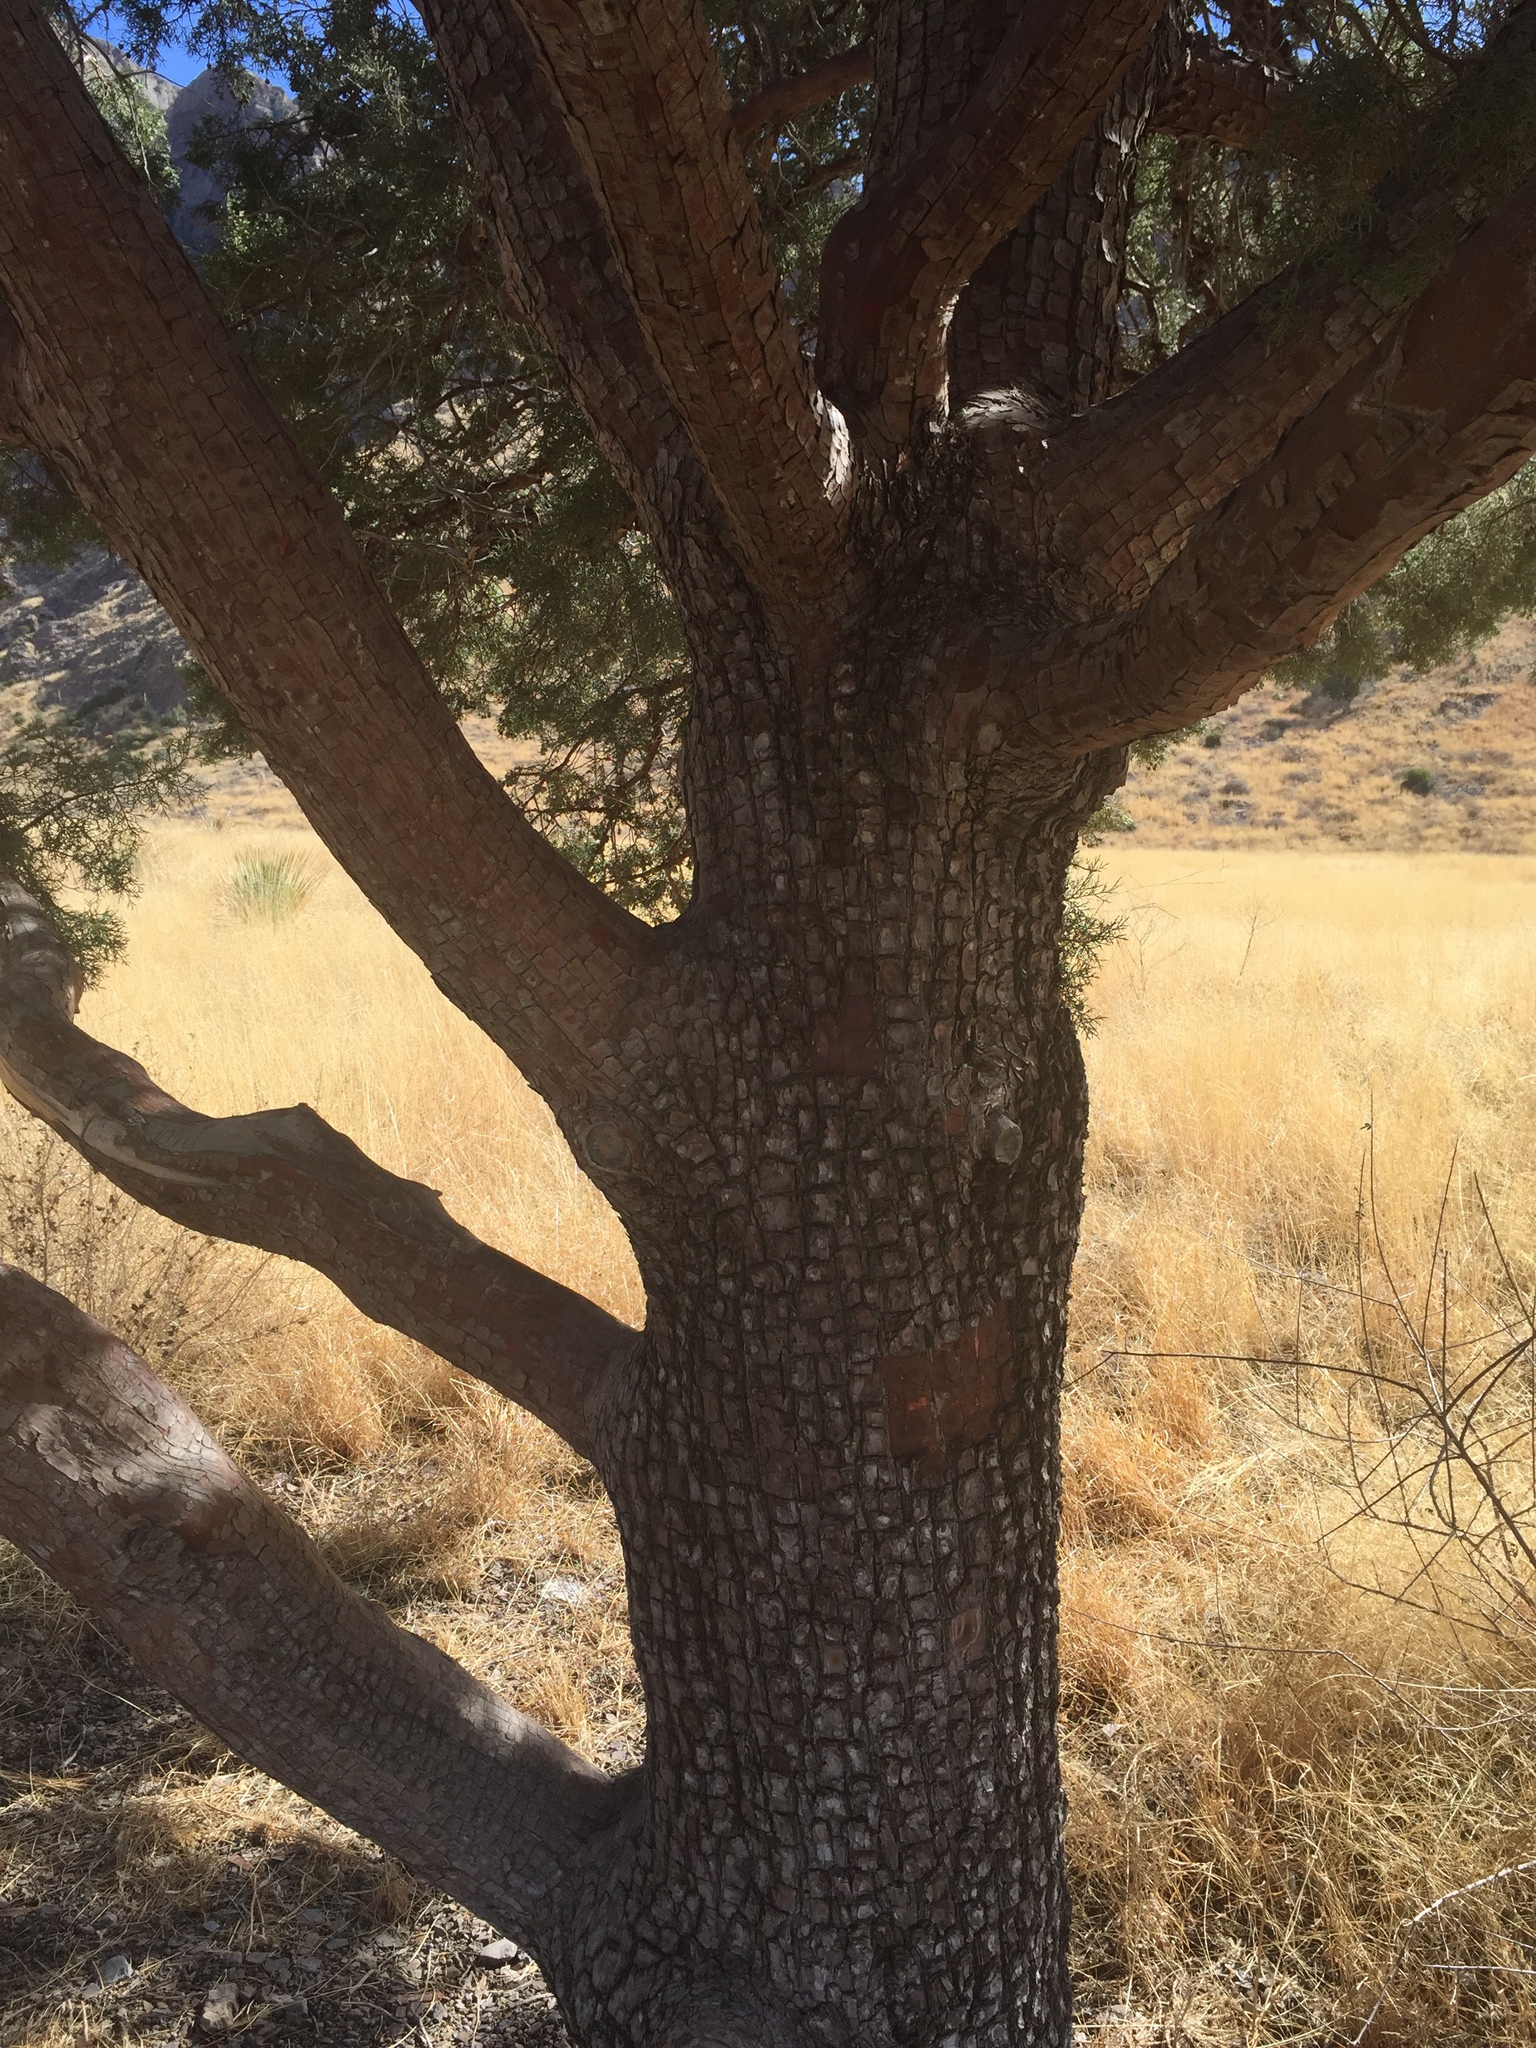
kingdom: Plantae
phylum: Tracheophyta
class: Pinopsida
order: Pinales
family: Cupressaceae
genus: Juniperus
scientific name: Juniperus deppeana
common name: Alligator juniper
